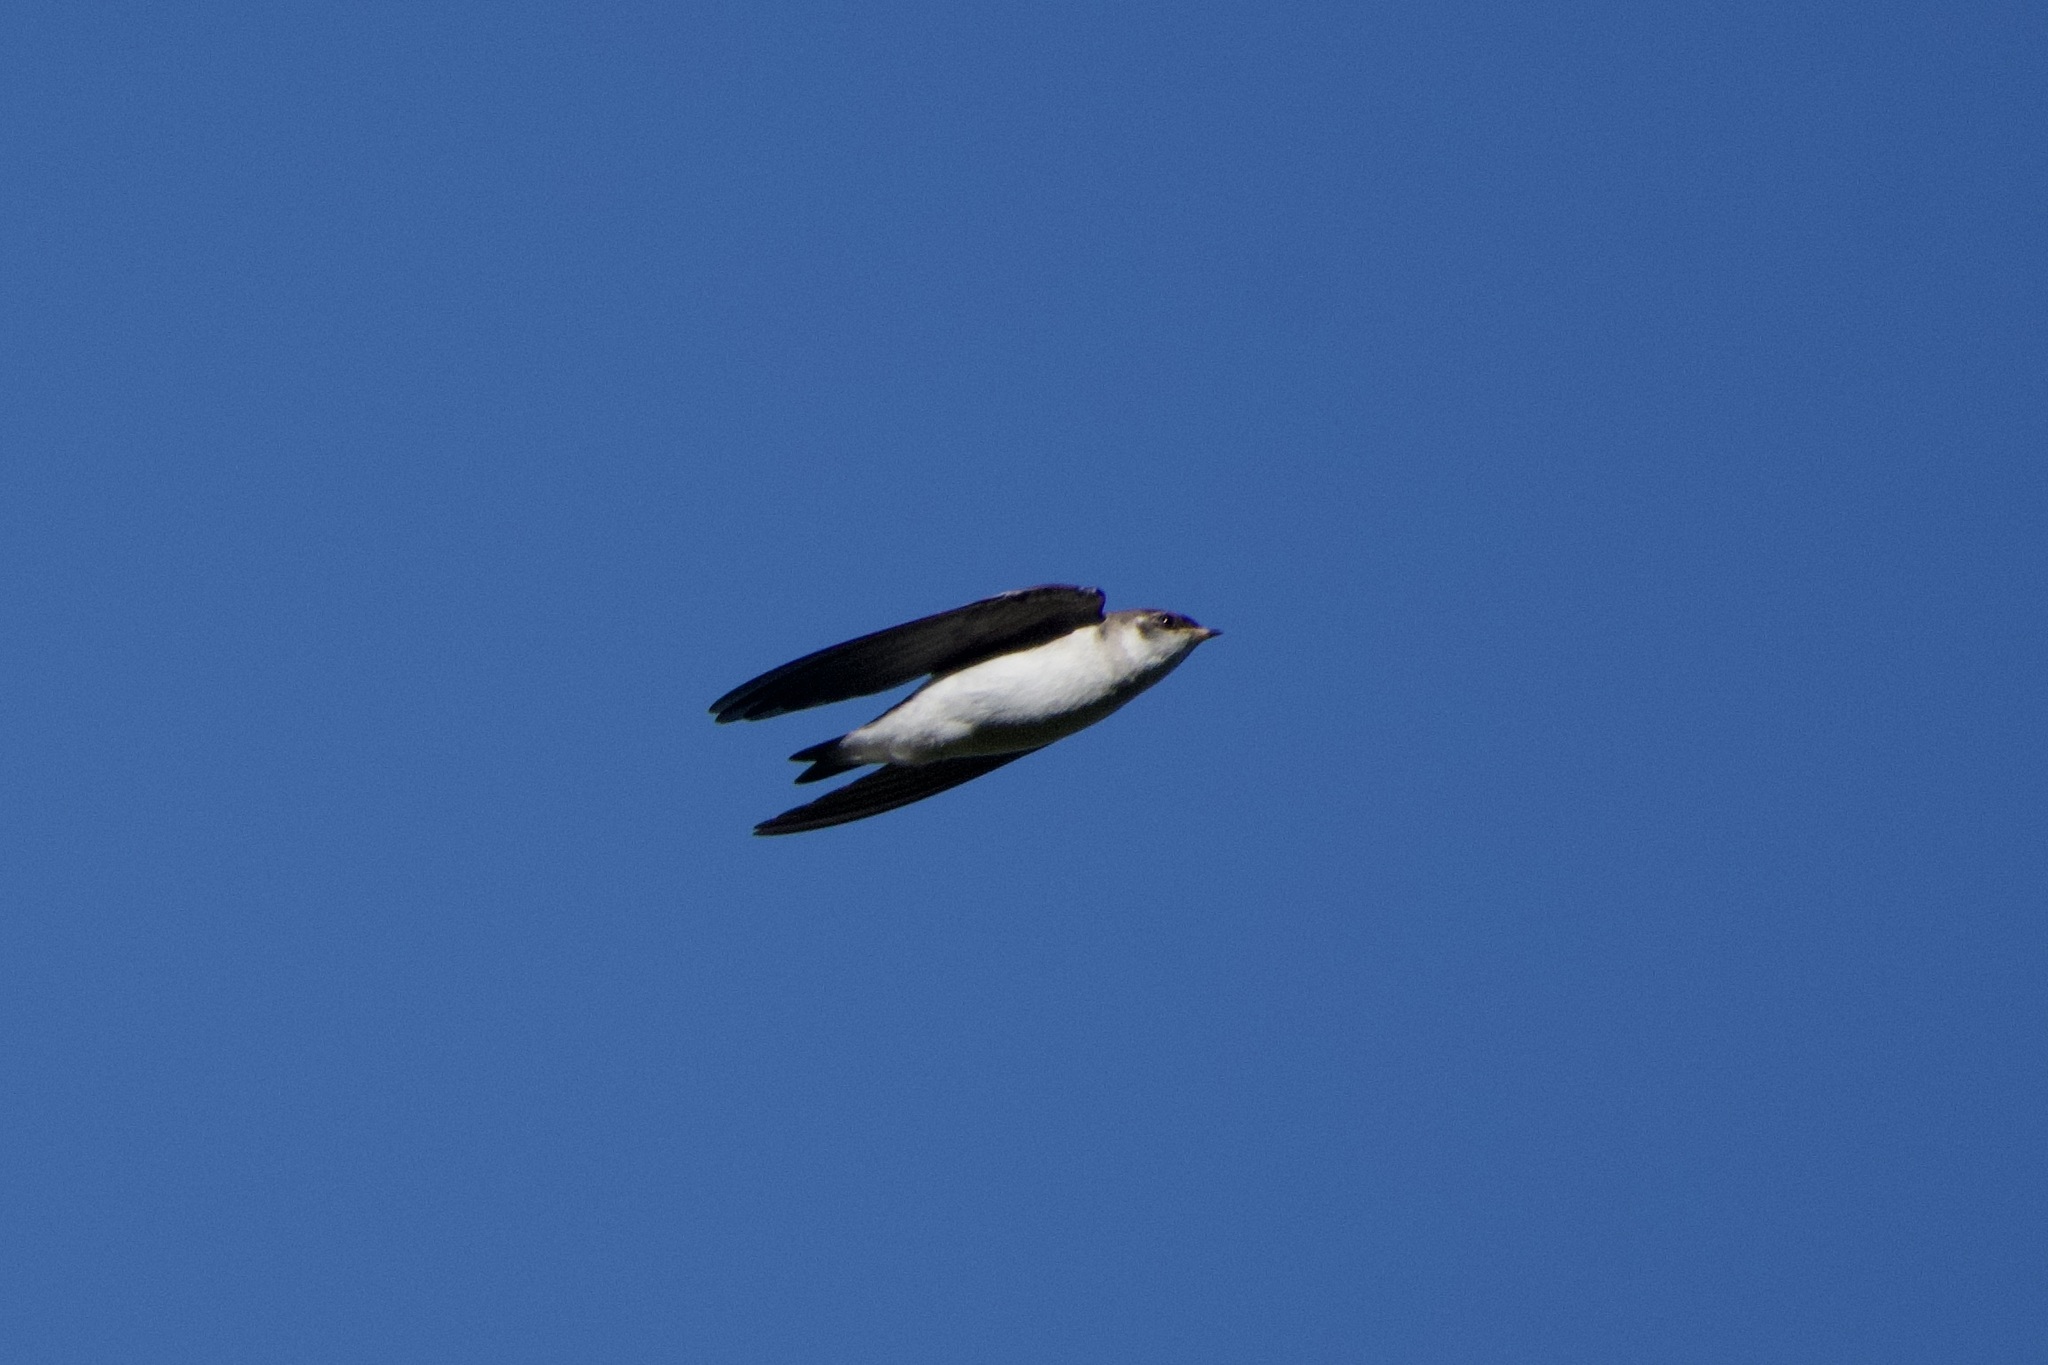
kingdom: Animalia
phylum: Chordata
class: Aves
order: Passeriformes
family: Hirundinidae
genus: Tachycineta
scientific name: Tachycineta thalassina
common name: Violet-green swallow
